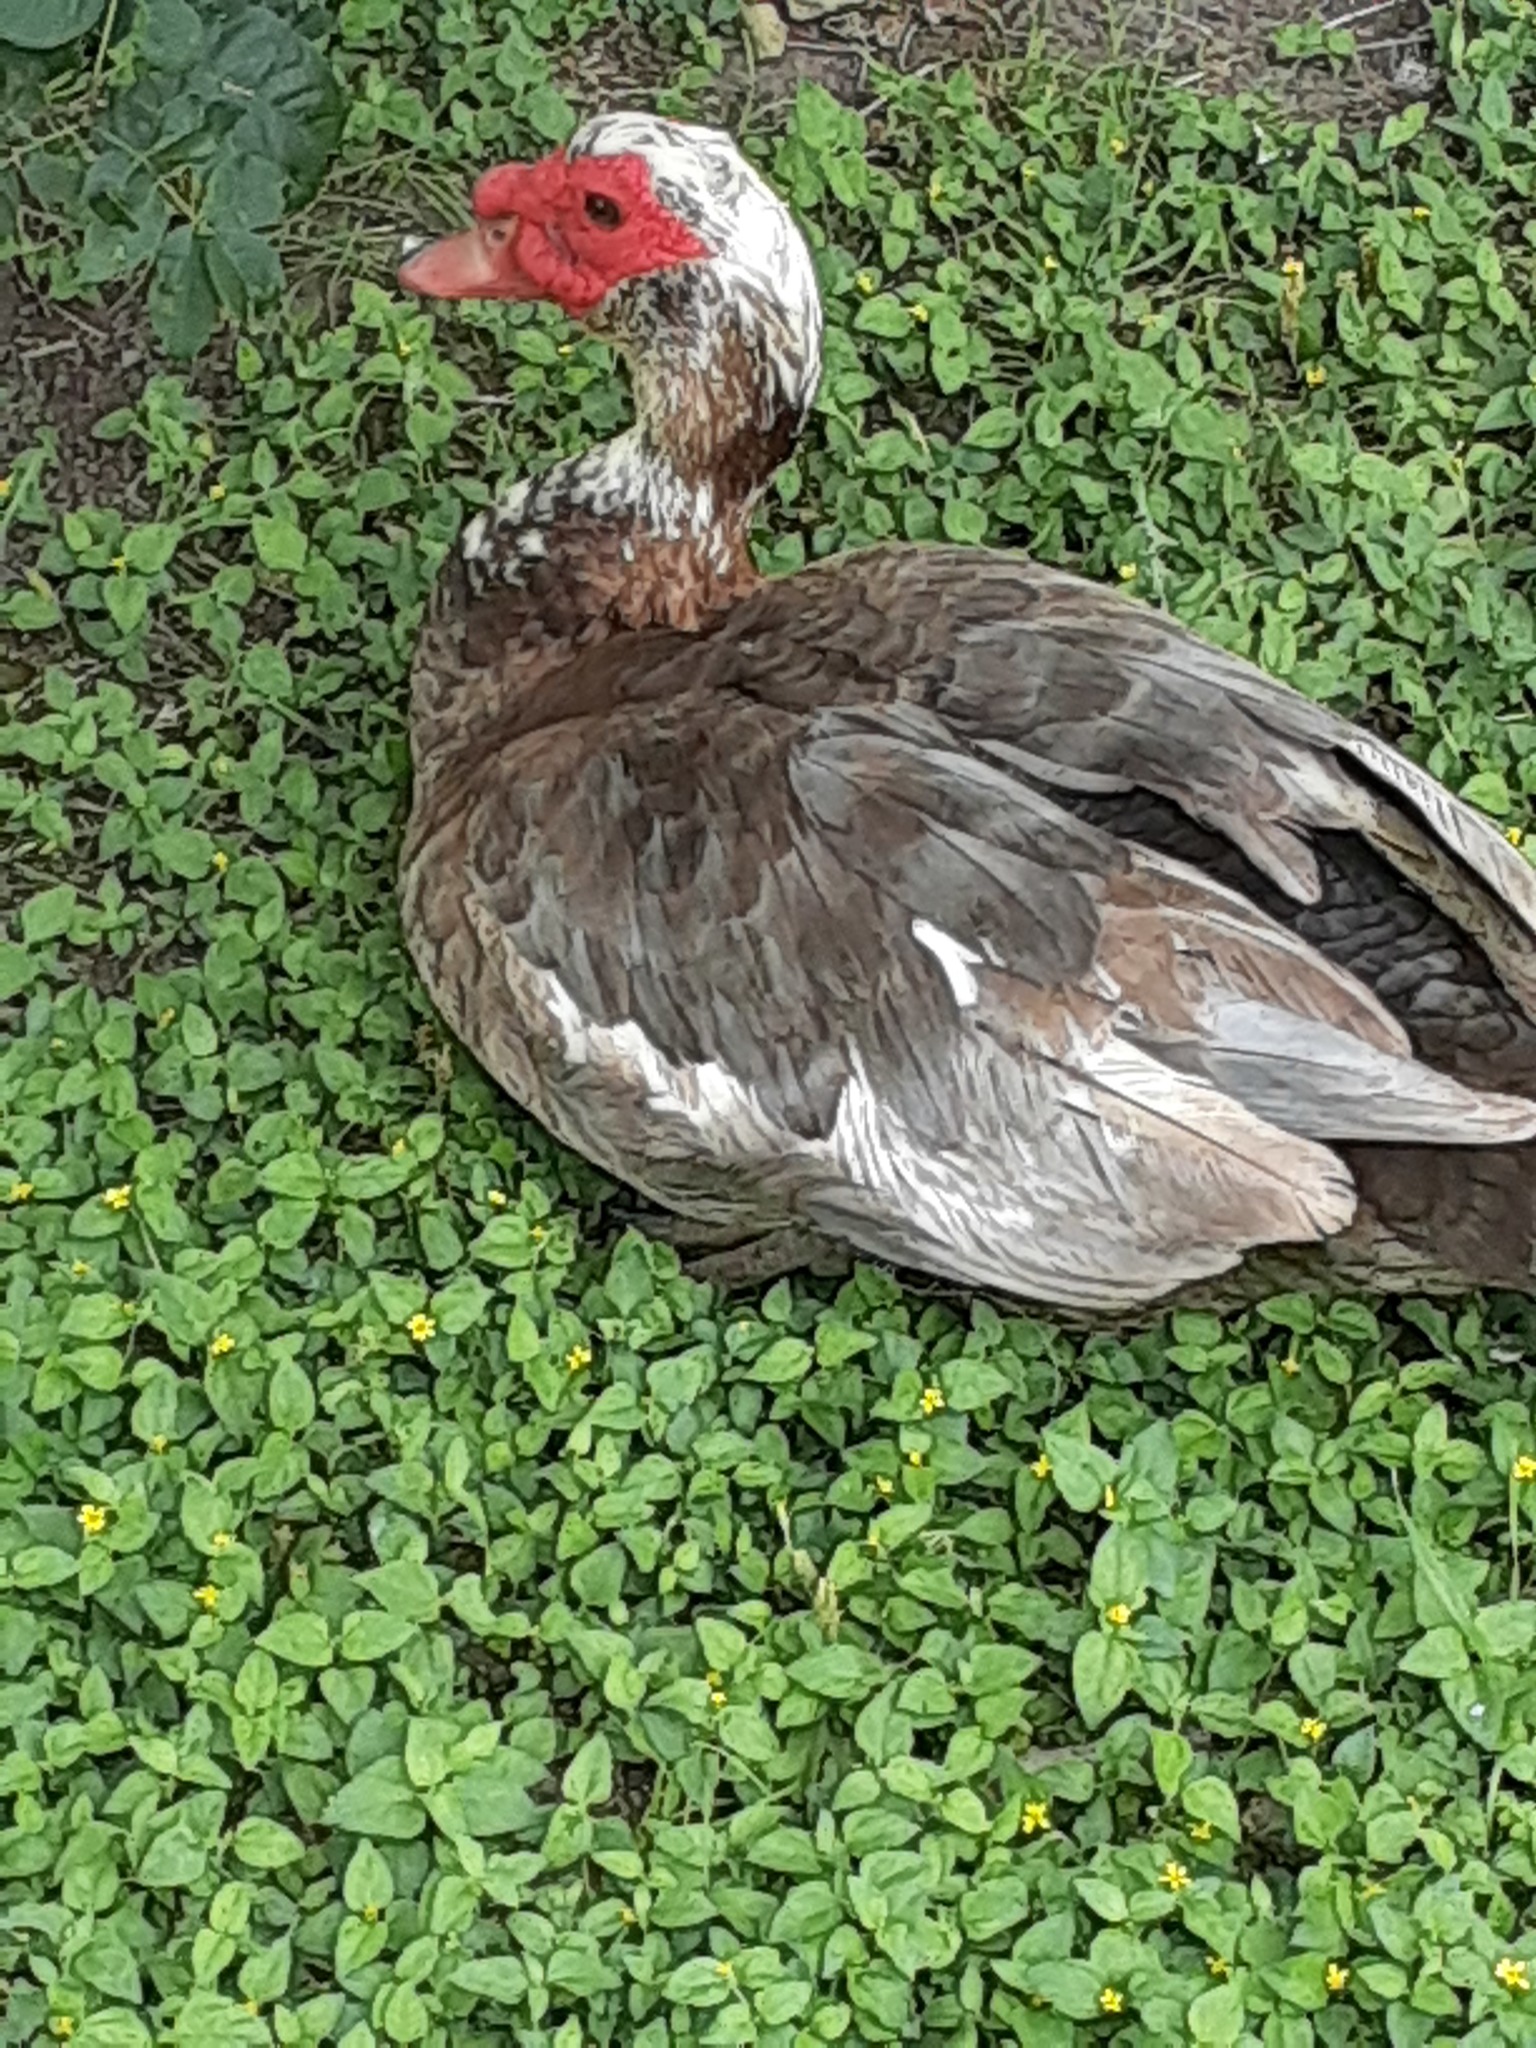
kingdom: Animalia
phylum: Chordata
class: Aves
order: Anseriformes
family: Anatidae
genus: Cairina
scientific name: Cairina moschata
